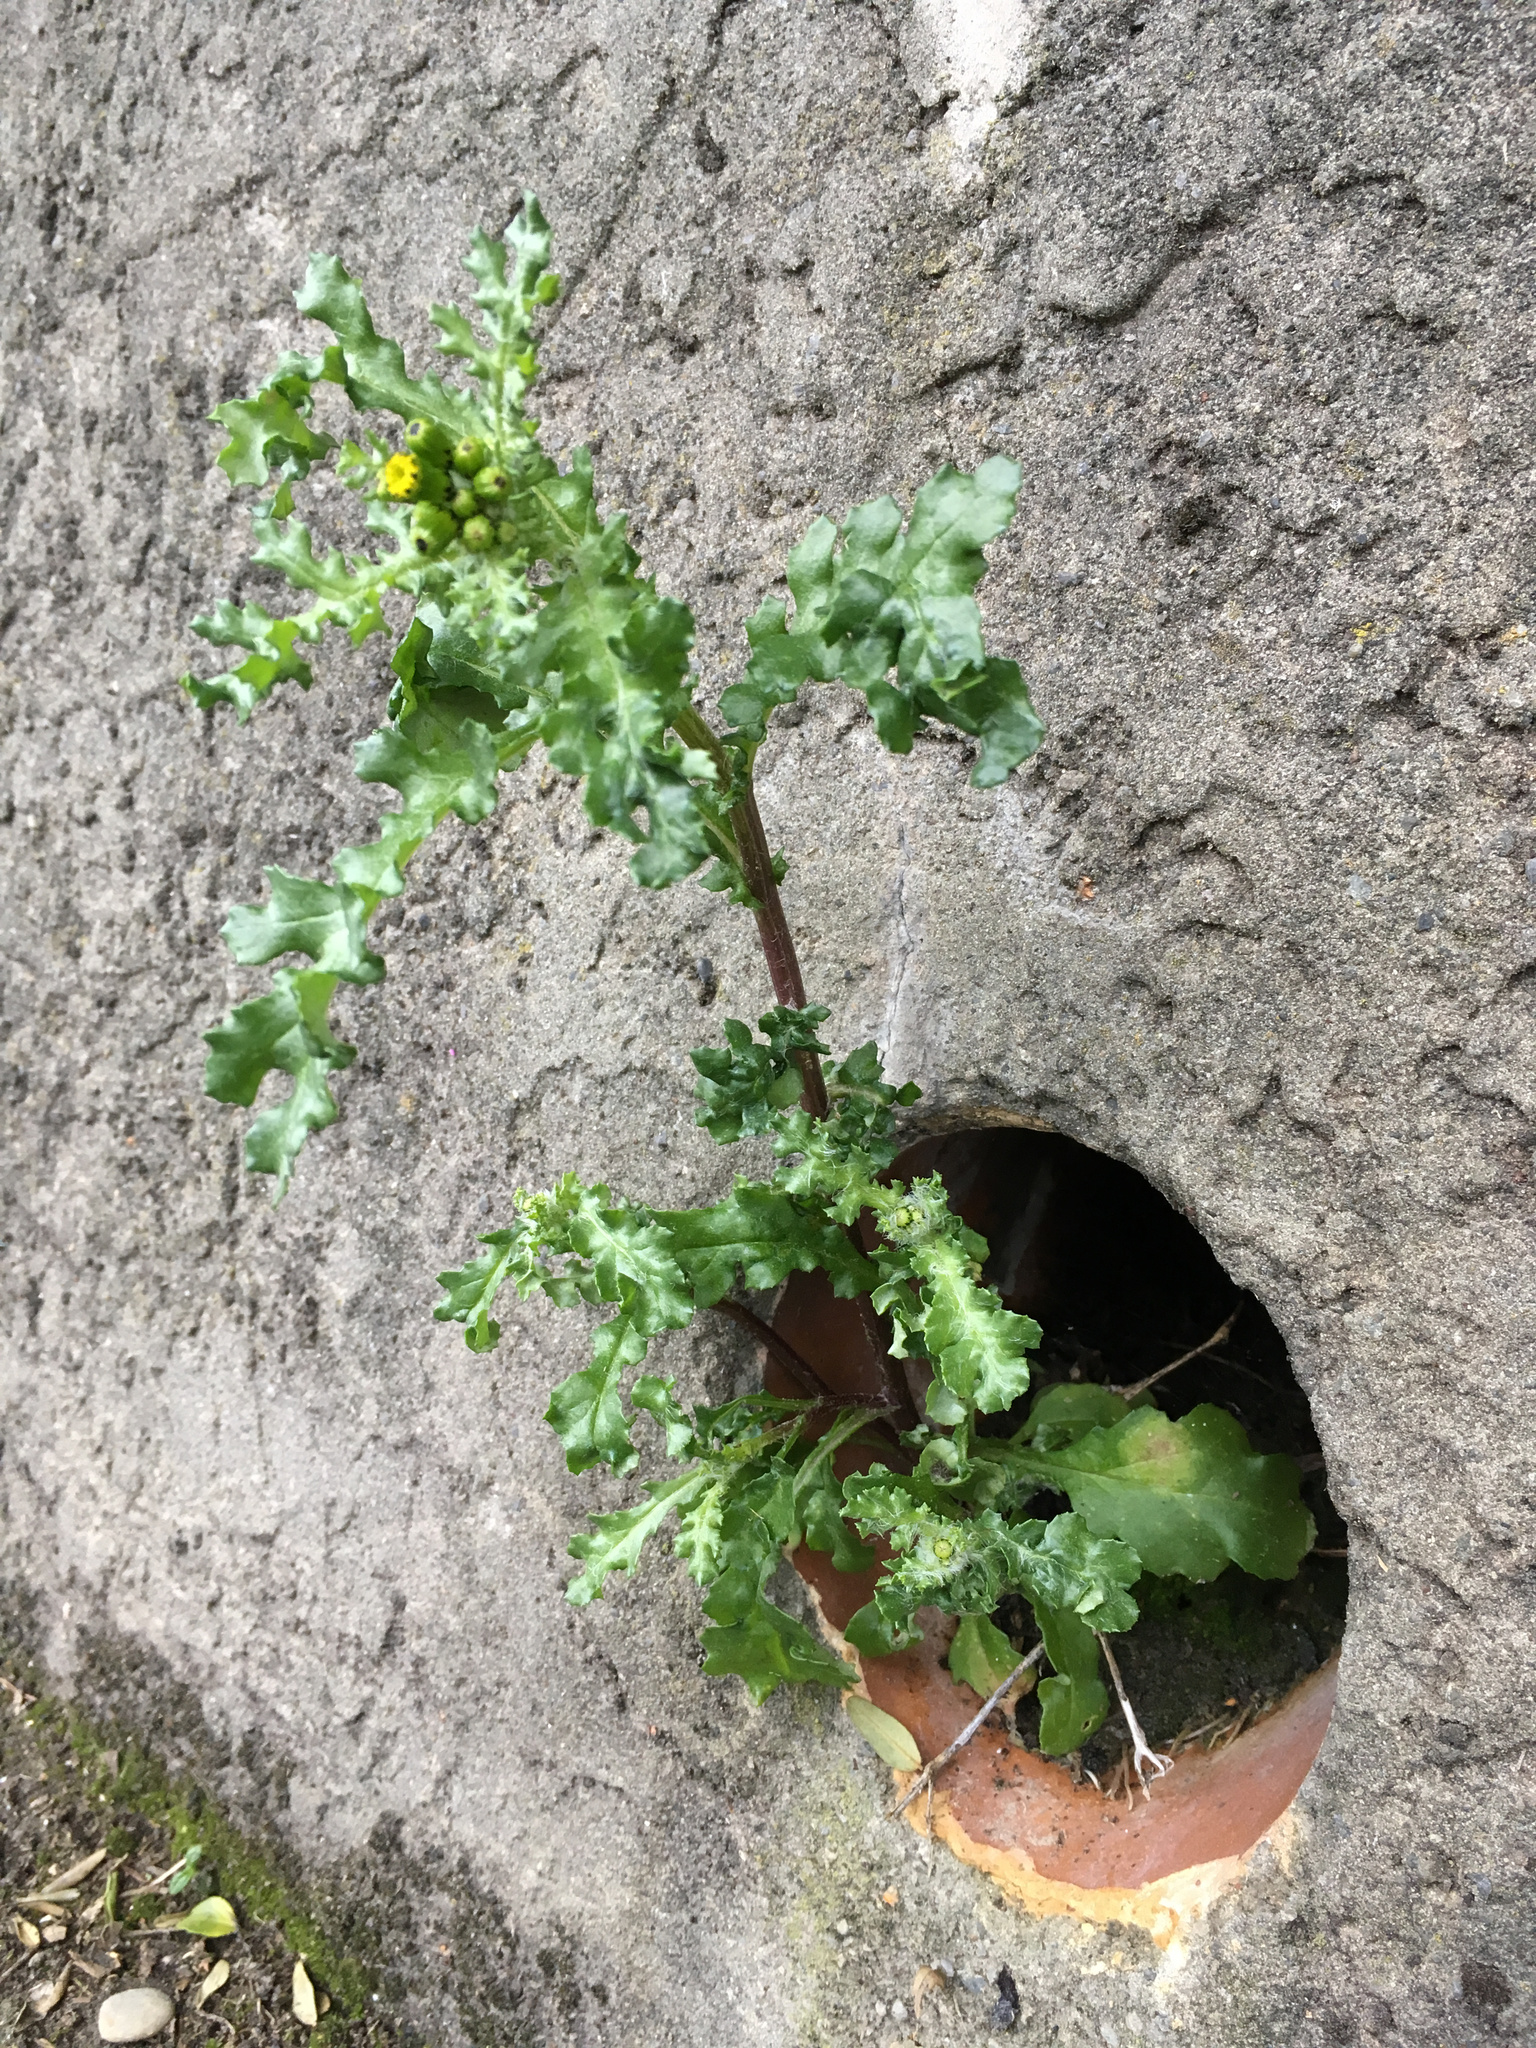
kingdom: Plantae
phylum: Tracheophyta
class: Magnoliopsida
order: Asterales
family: Asteraceae
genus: Senecio
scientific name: Senecio vulgaris
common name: Old-man-in-the-spring
